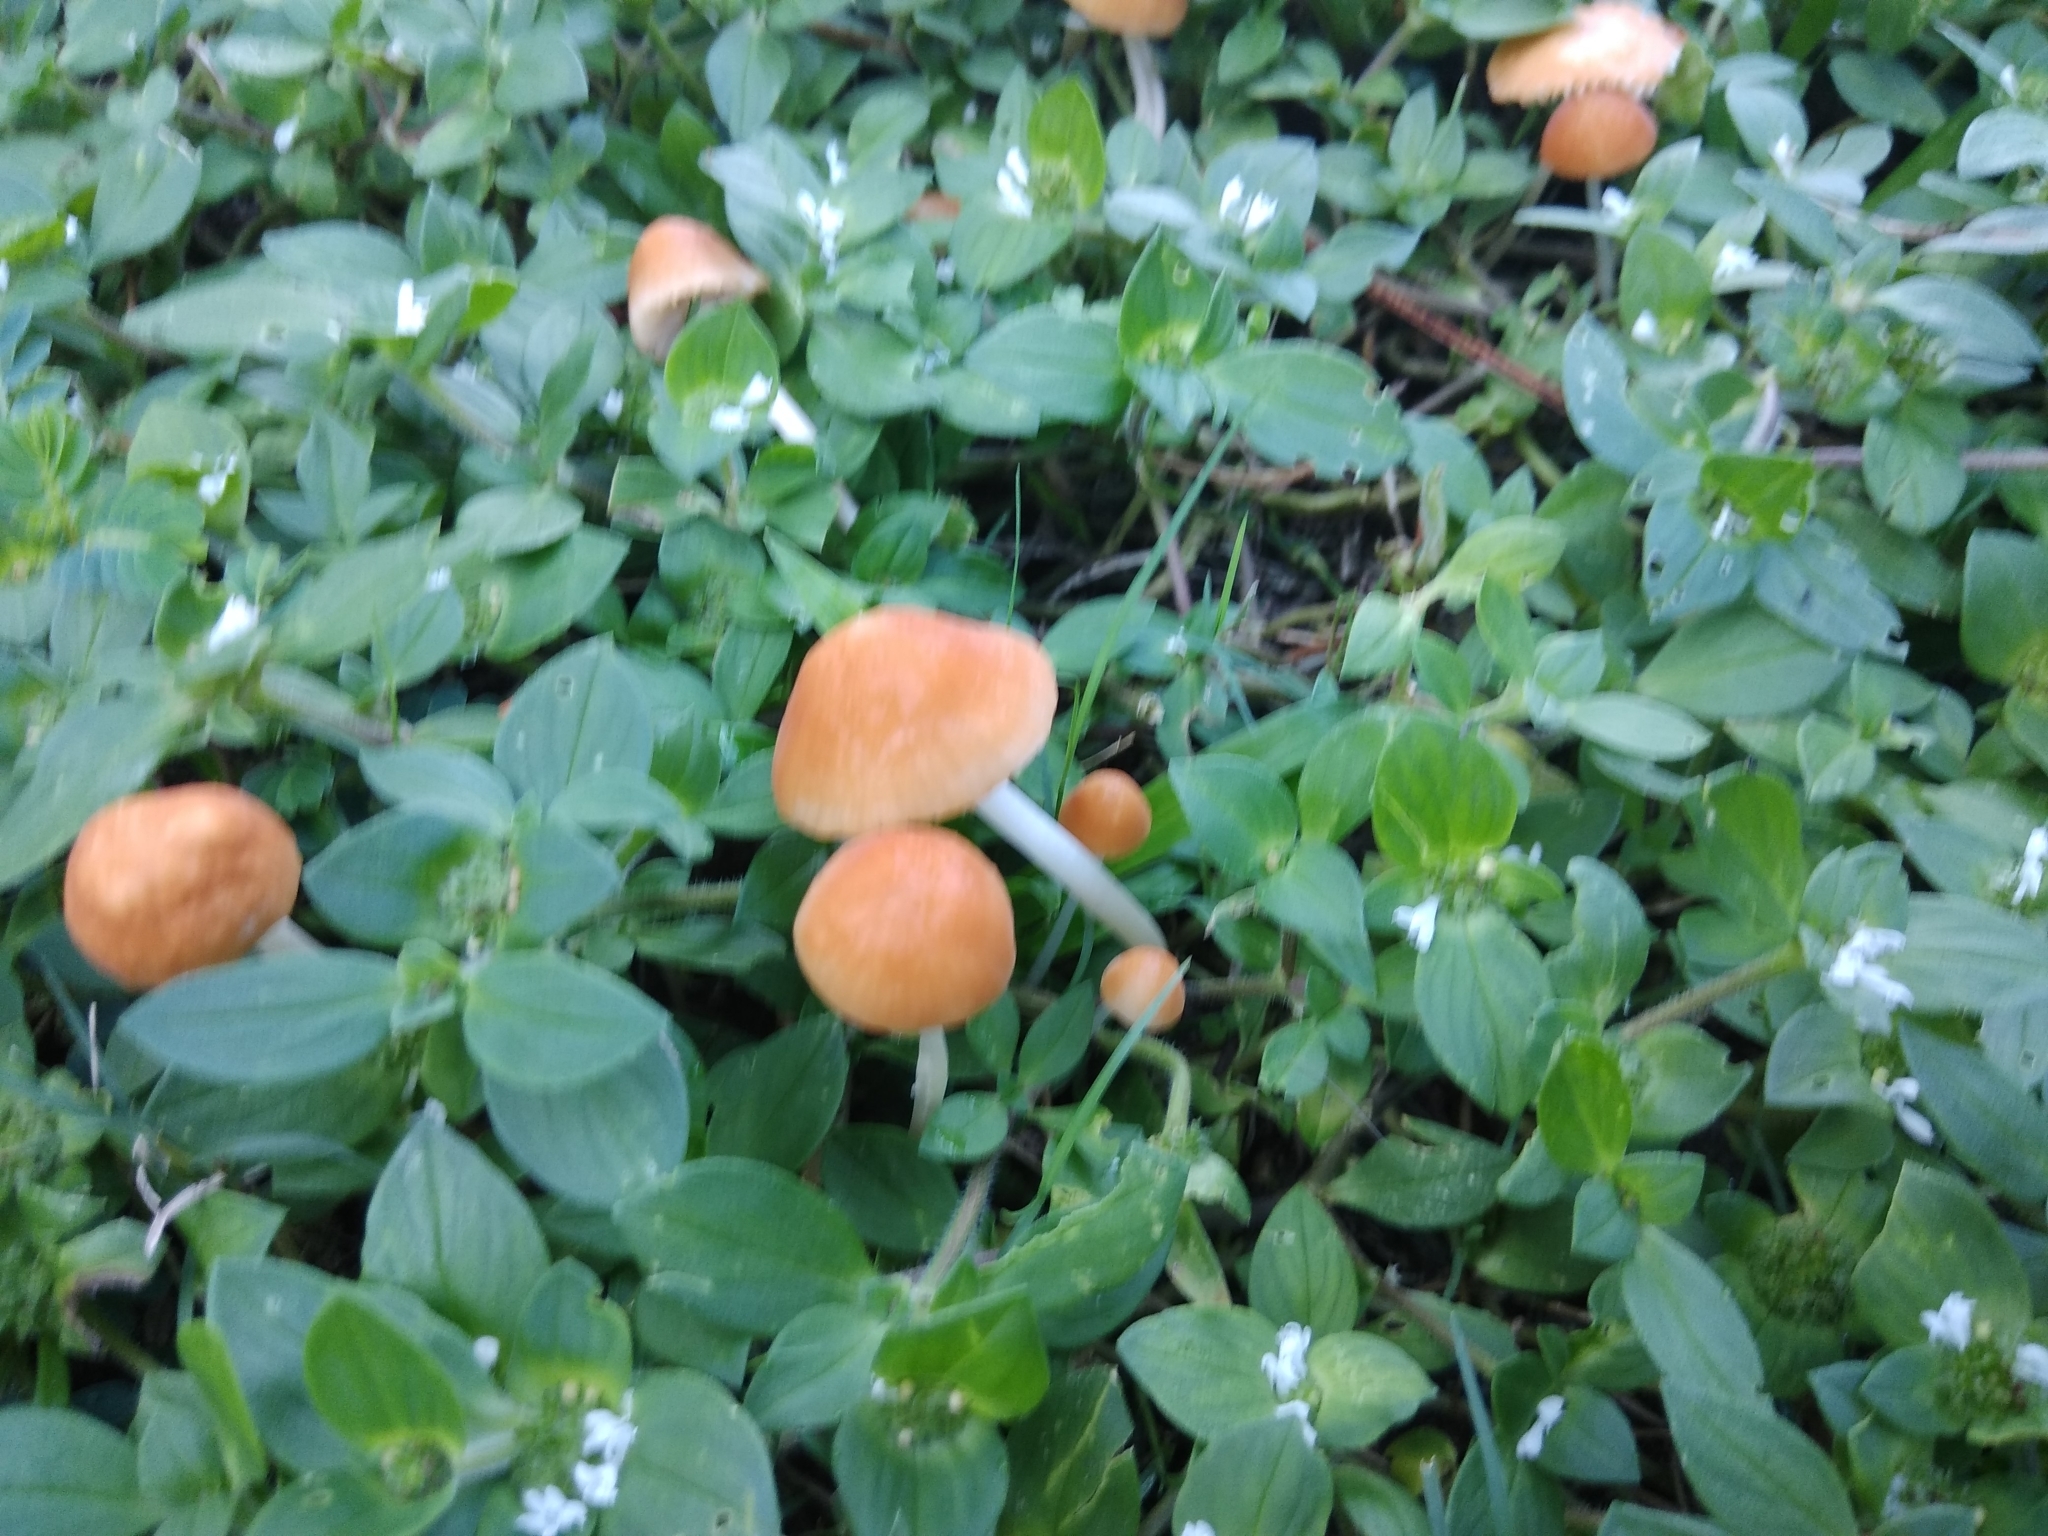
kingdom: Fungi
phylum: Basidiomycota
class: Agaricomycetes
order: Agaricales
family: Marasmiaceae
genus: Marasmius
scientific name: Marasmius vagus
